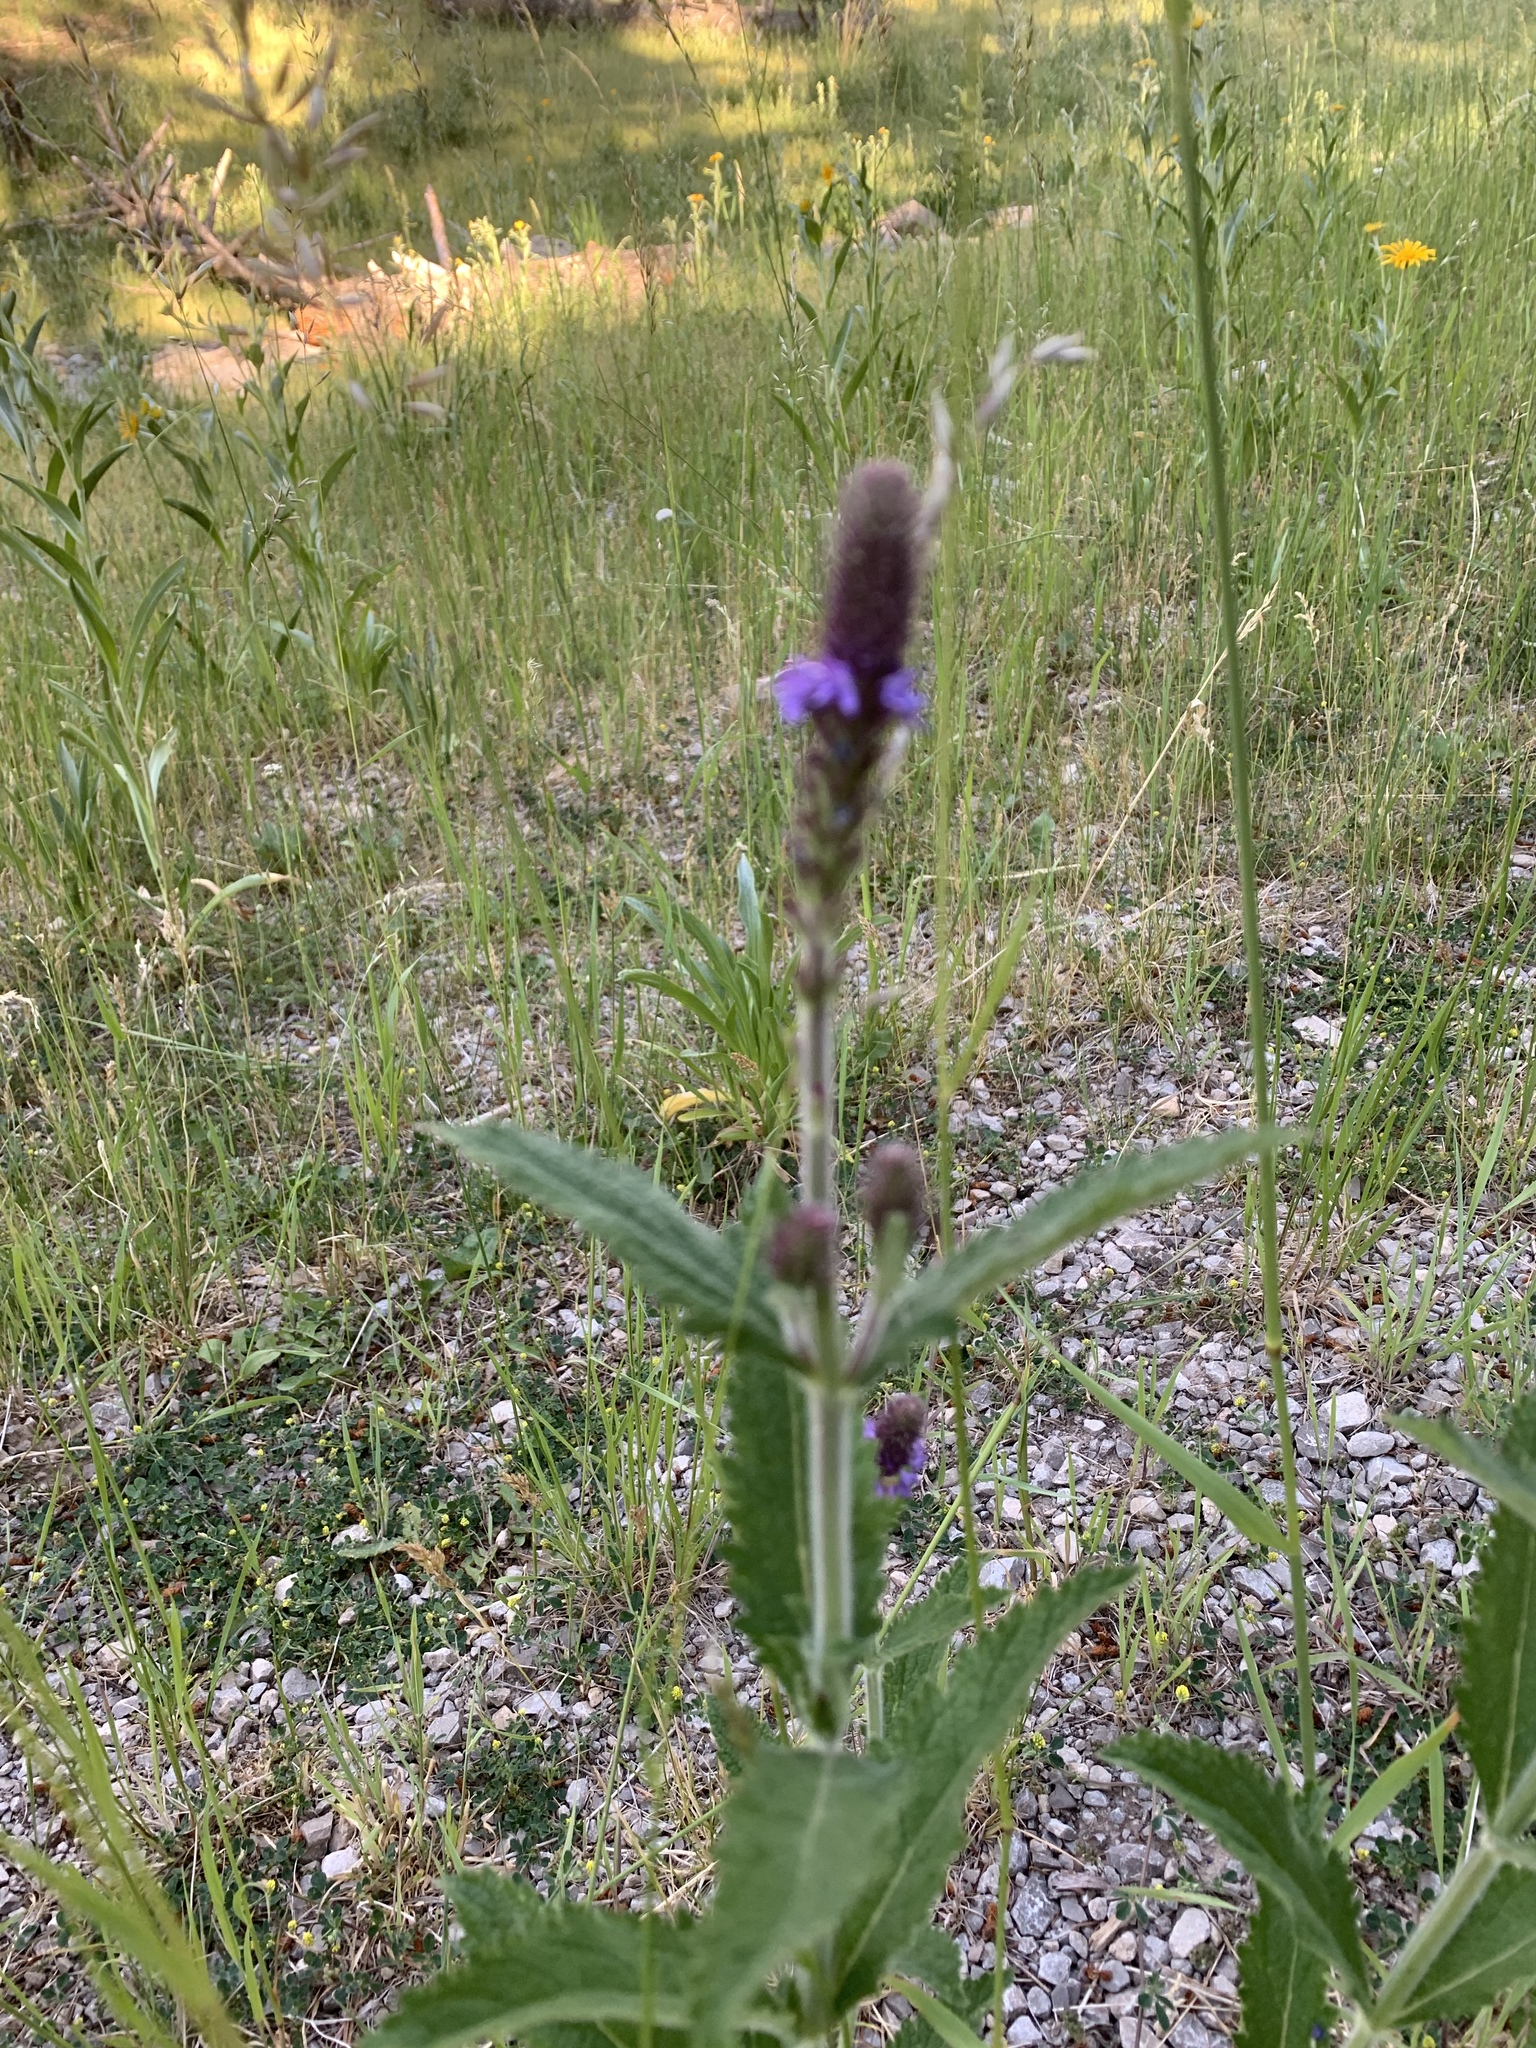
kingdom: Plantae
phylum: Tracheophyta
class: Magnoliopsida
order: Lamiales
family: Verbenaceae
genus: Verbena
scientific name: Verbena macdougalii
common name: New mexico vervain
